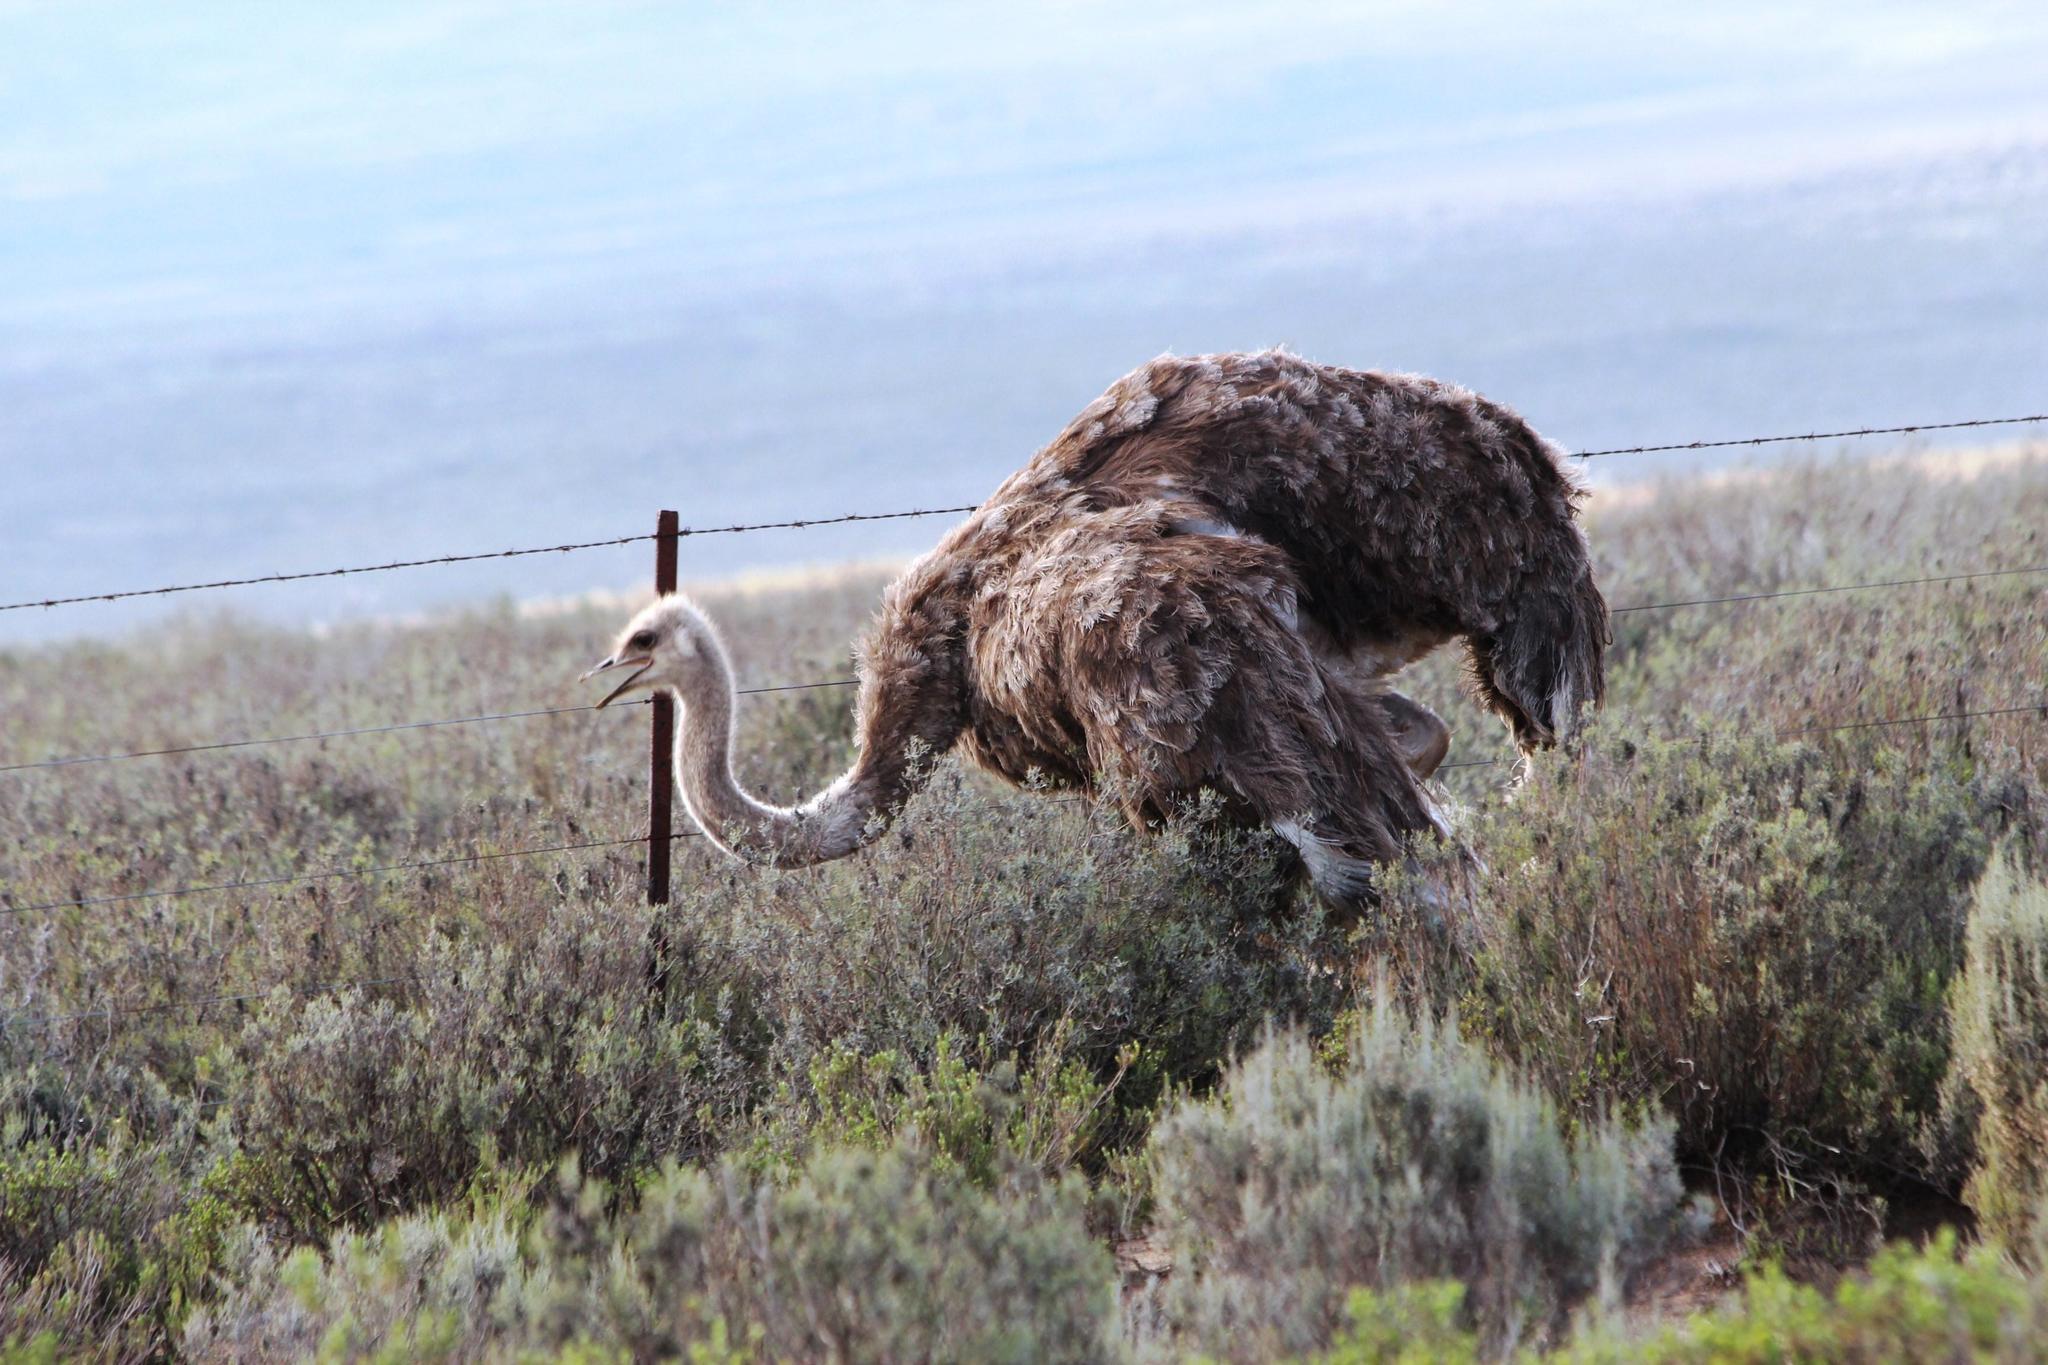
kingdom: Animalia
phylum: Chordata
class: Aves
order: Struthioniformes
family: Struthionidae
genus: Struthio
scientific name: Struthio camelus
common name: Common ostrich
